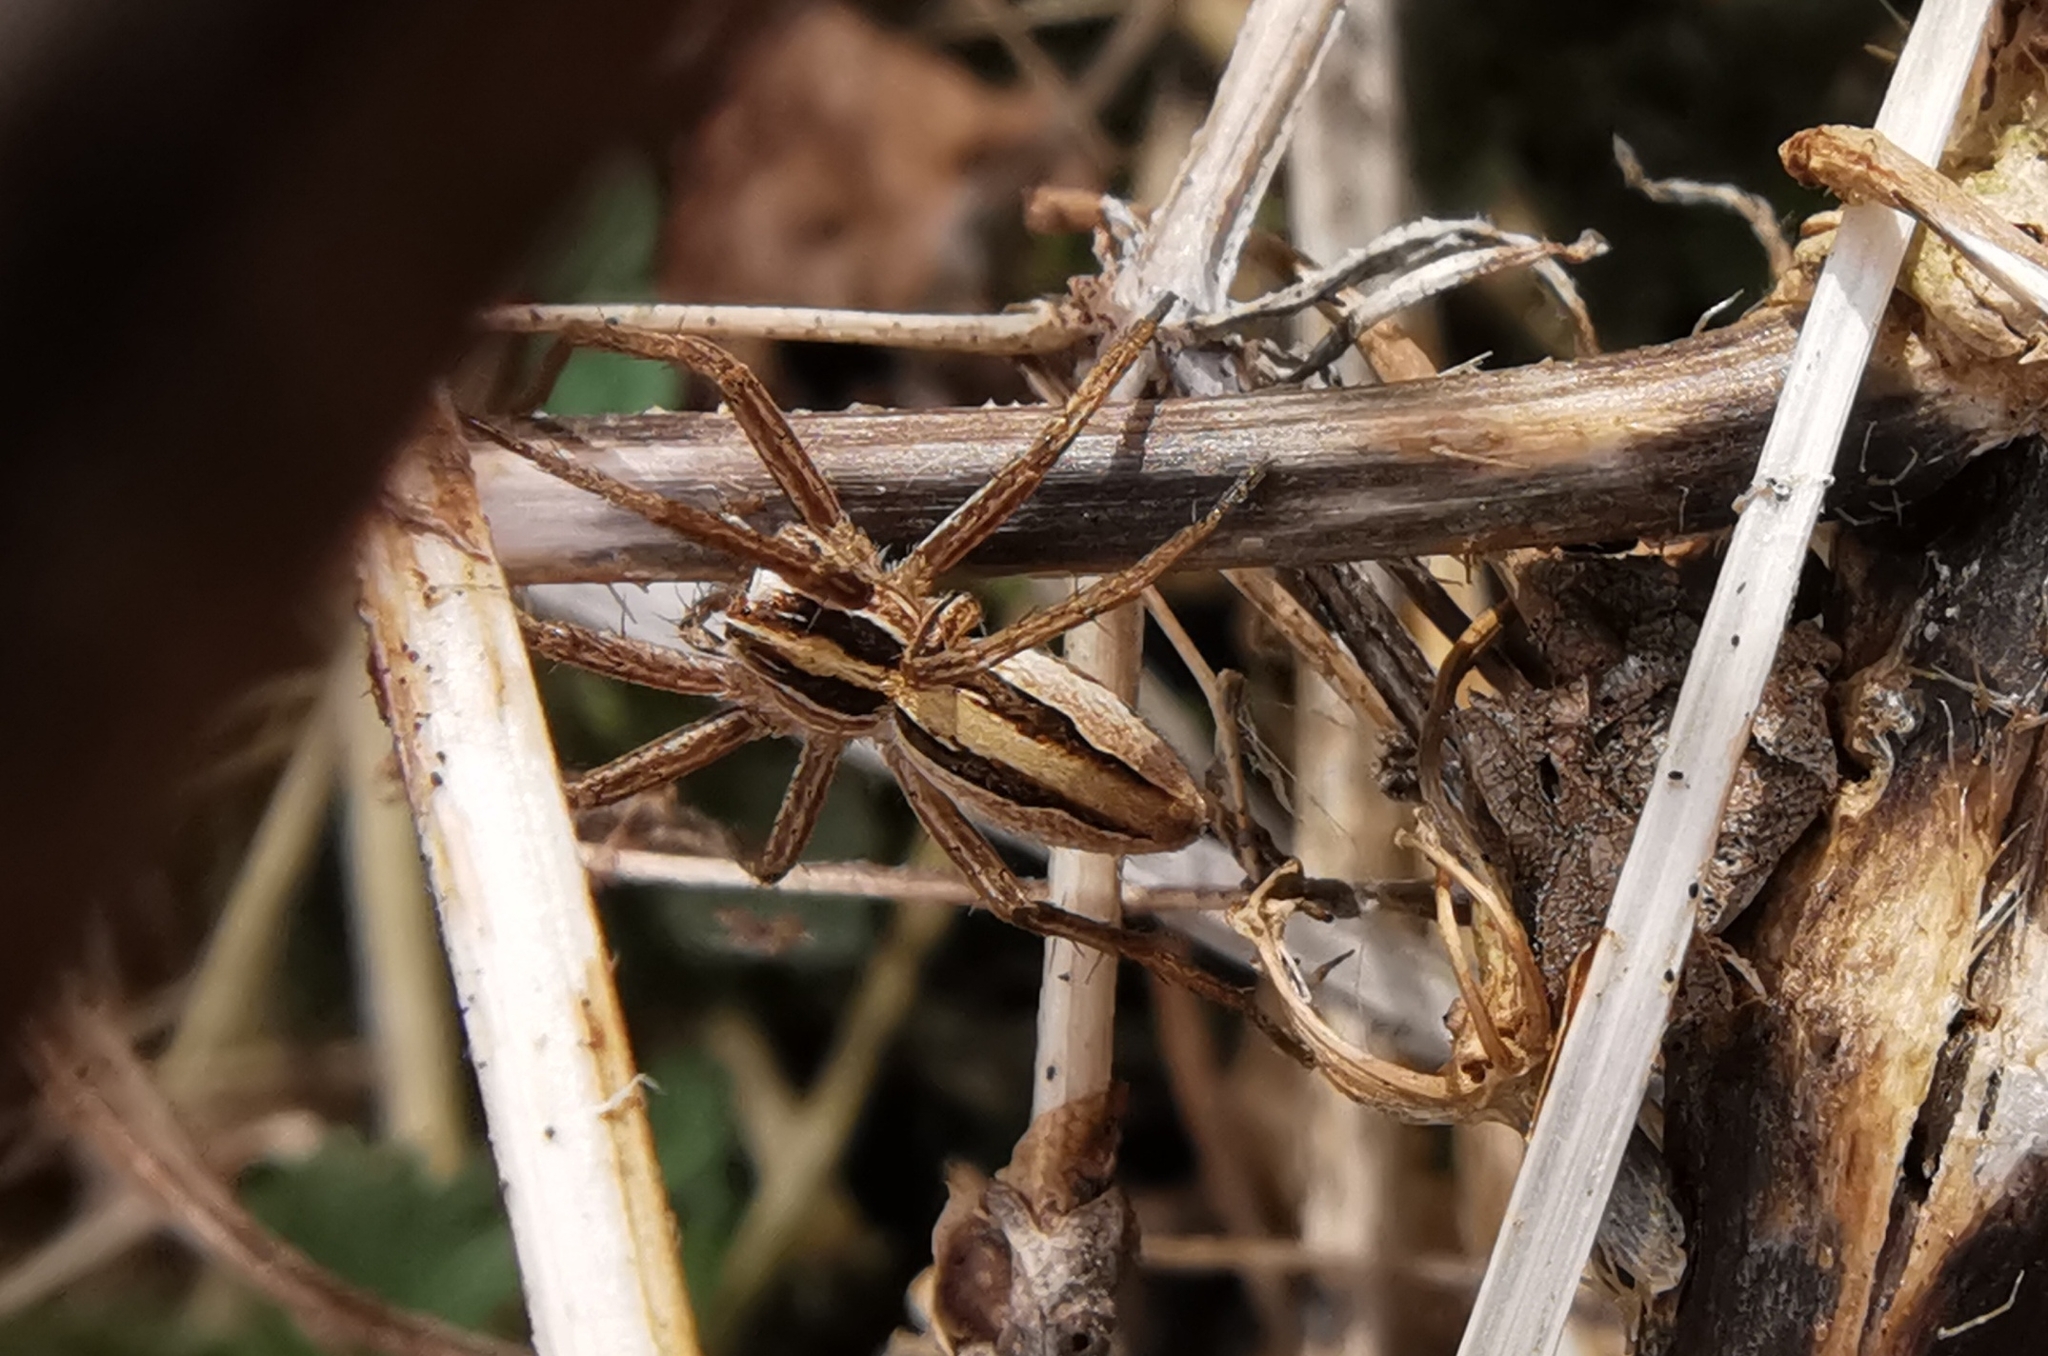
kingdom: Animalia
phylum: Arthropoda
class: Arachnida
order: Araneae
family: Pisauridae
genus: Pisaura
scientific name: Pisaura mirabilis
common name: Tent spider
